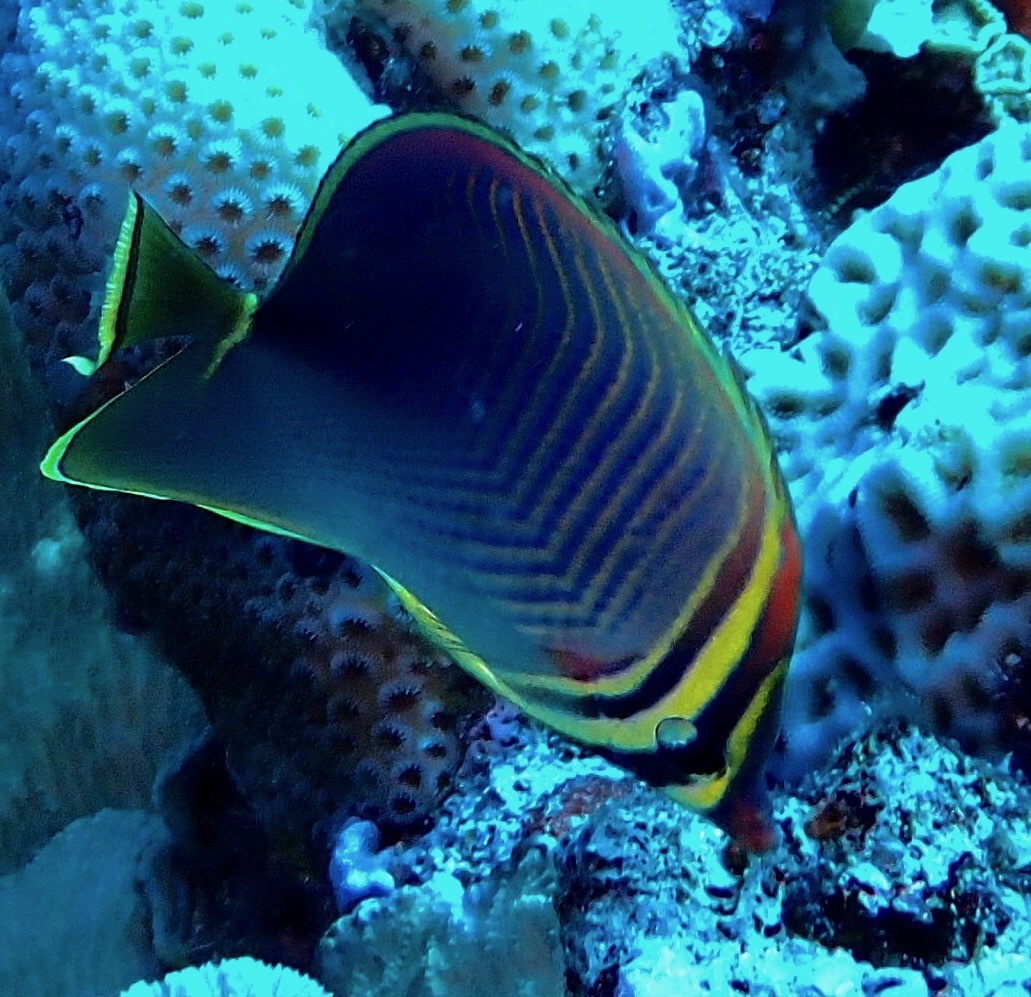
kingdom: Animalia
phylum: Chordata
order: Perciformes
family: Chaetodontidae
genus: Chaetodon
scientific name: Chaetodon baronessa
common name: Triangular butterflyfish
